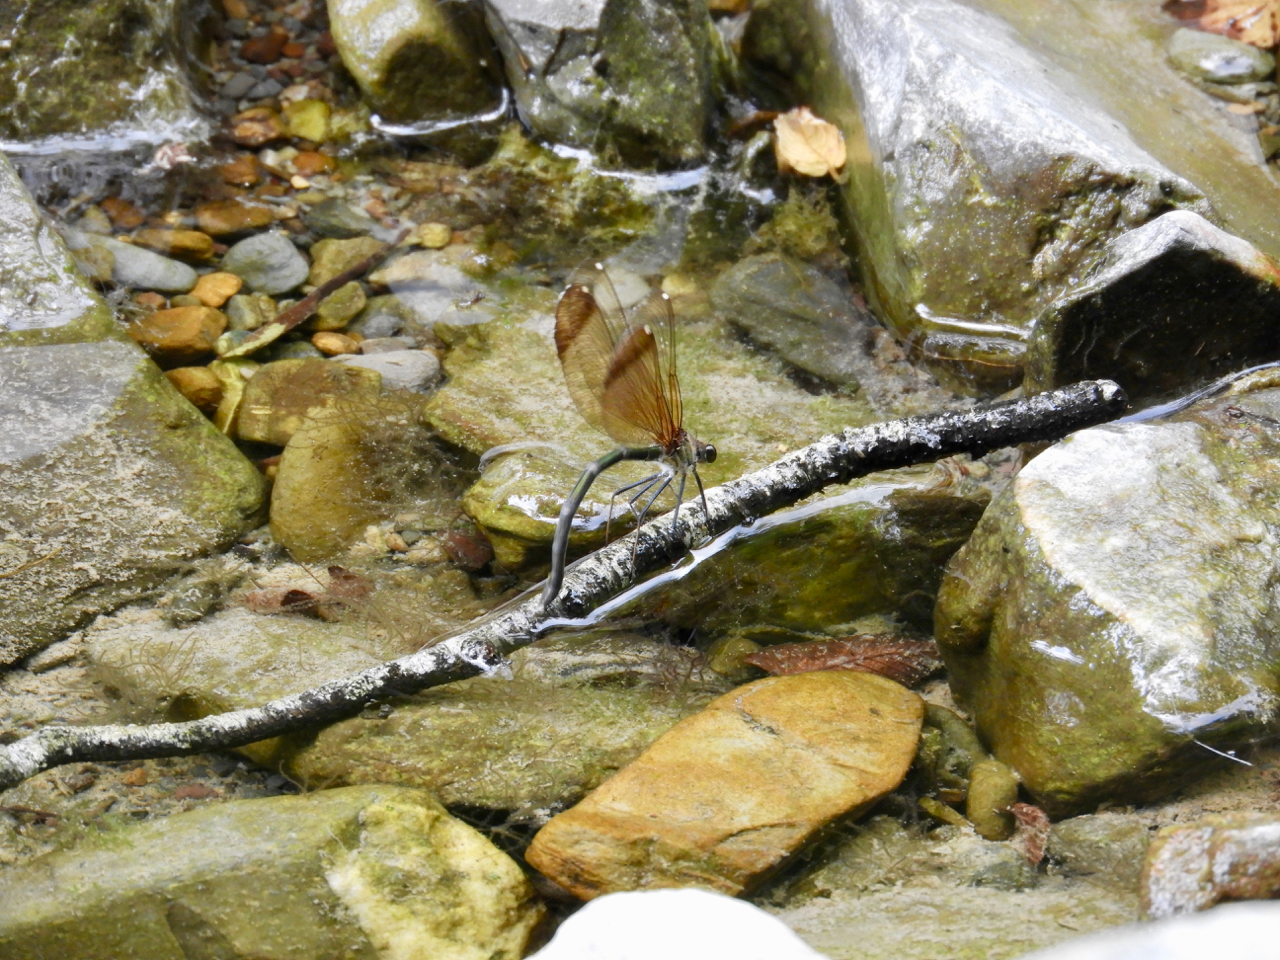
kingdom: Animalia
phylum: Arthropoda
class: Insecta
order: Odonata
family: Calopterygidae
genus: Calopteryx
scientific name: Calopteryx haemorrhoidalis
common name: Copper demoiselle
